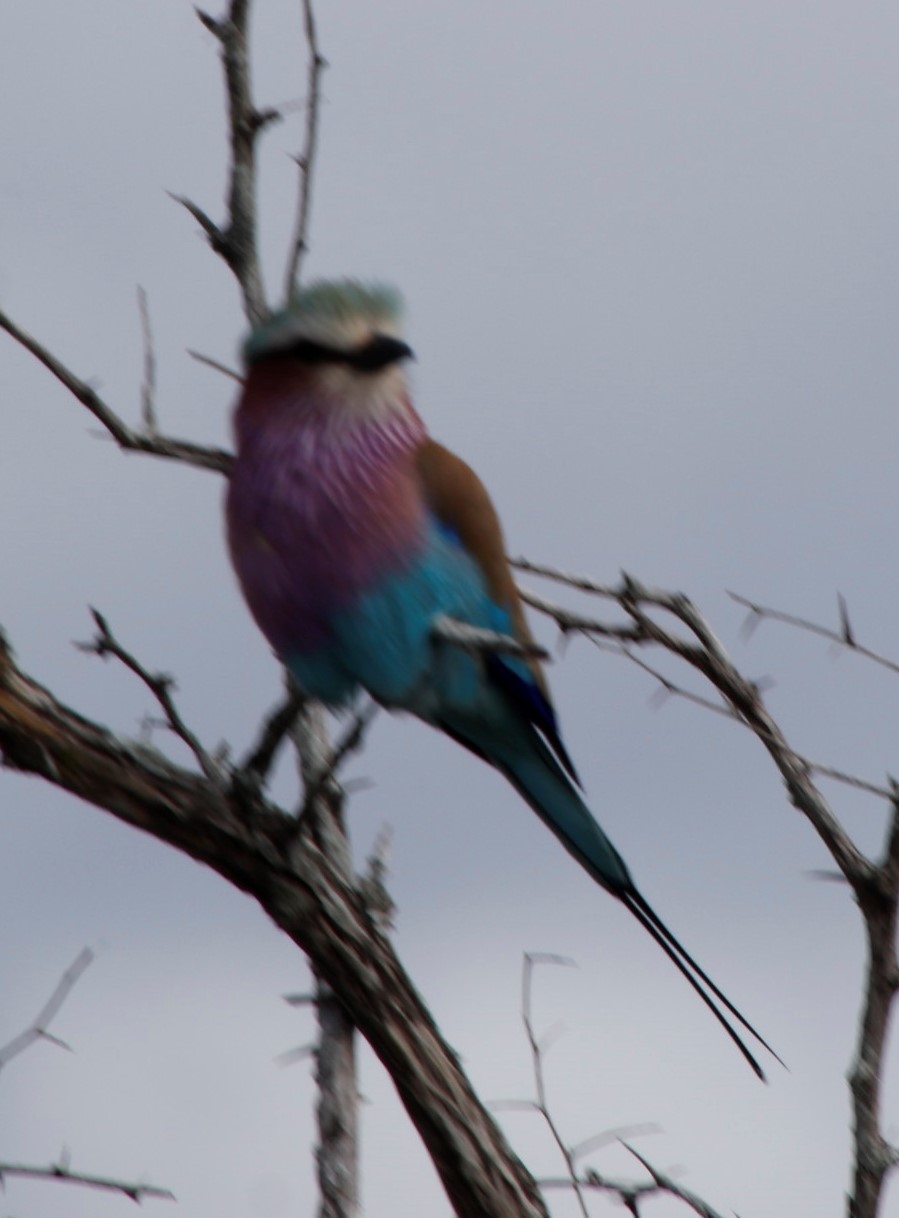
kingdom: Animalia
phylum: Chordata
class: Aves
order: Coraciiformes
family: Coraciidae
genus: Coracias
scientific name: Coracias caudatus
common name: Lilac-breasted roller
